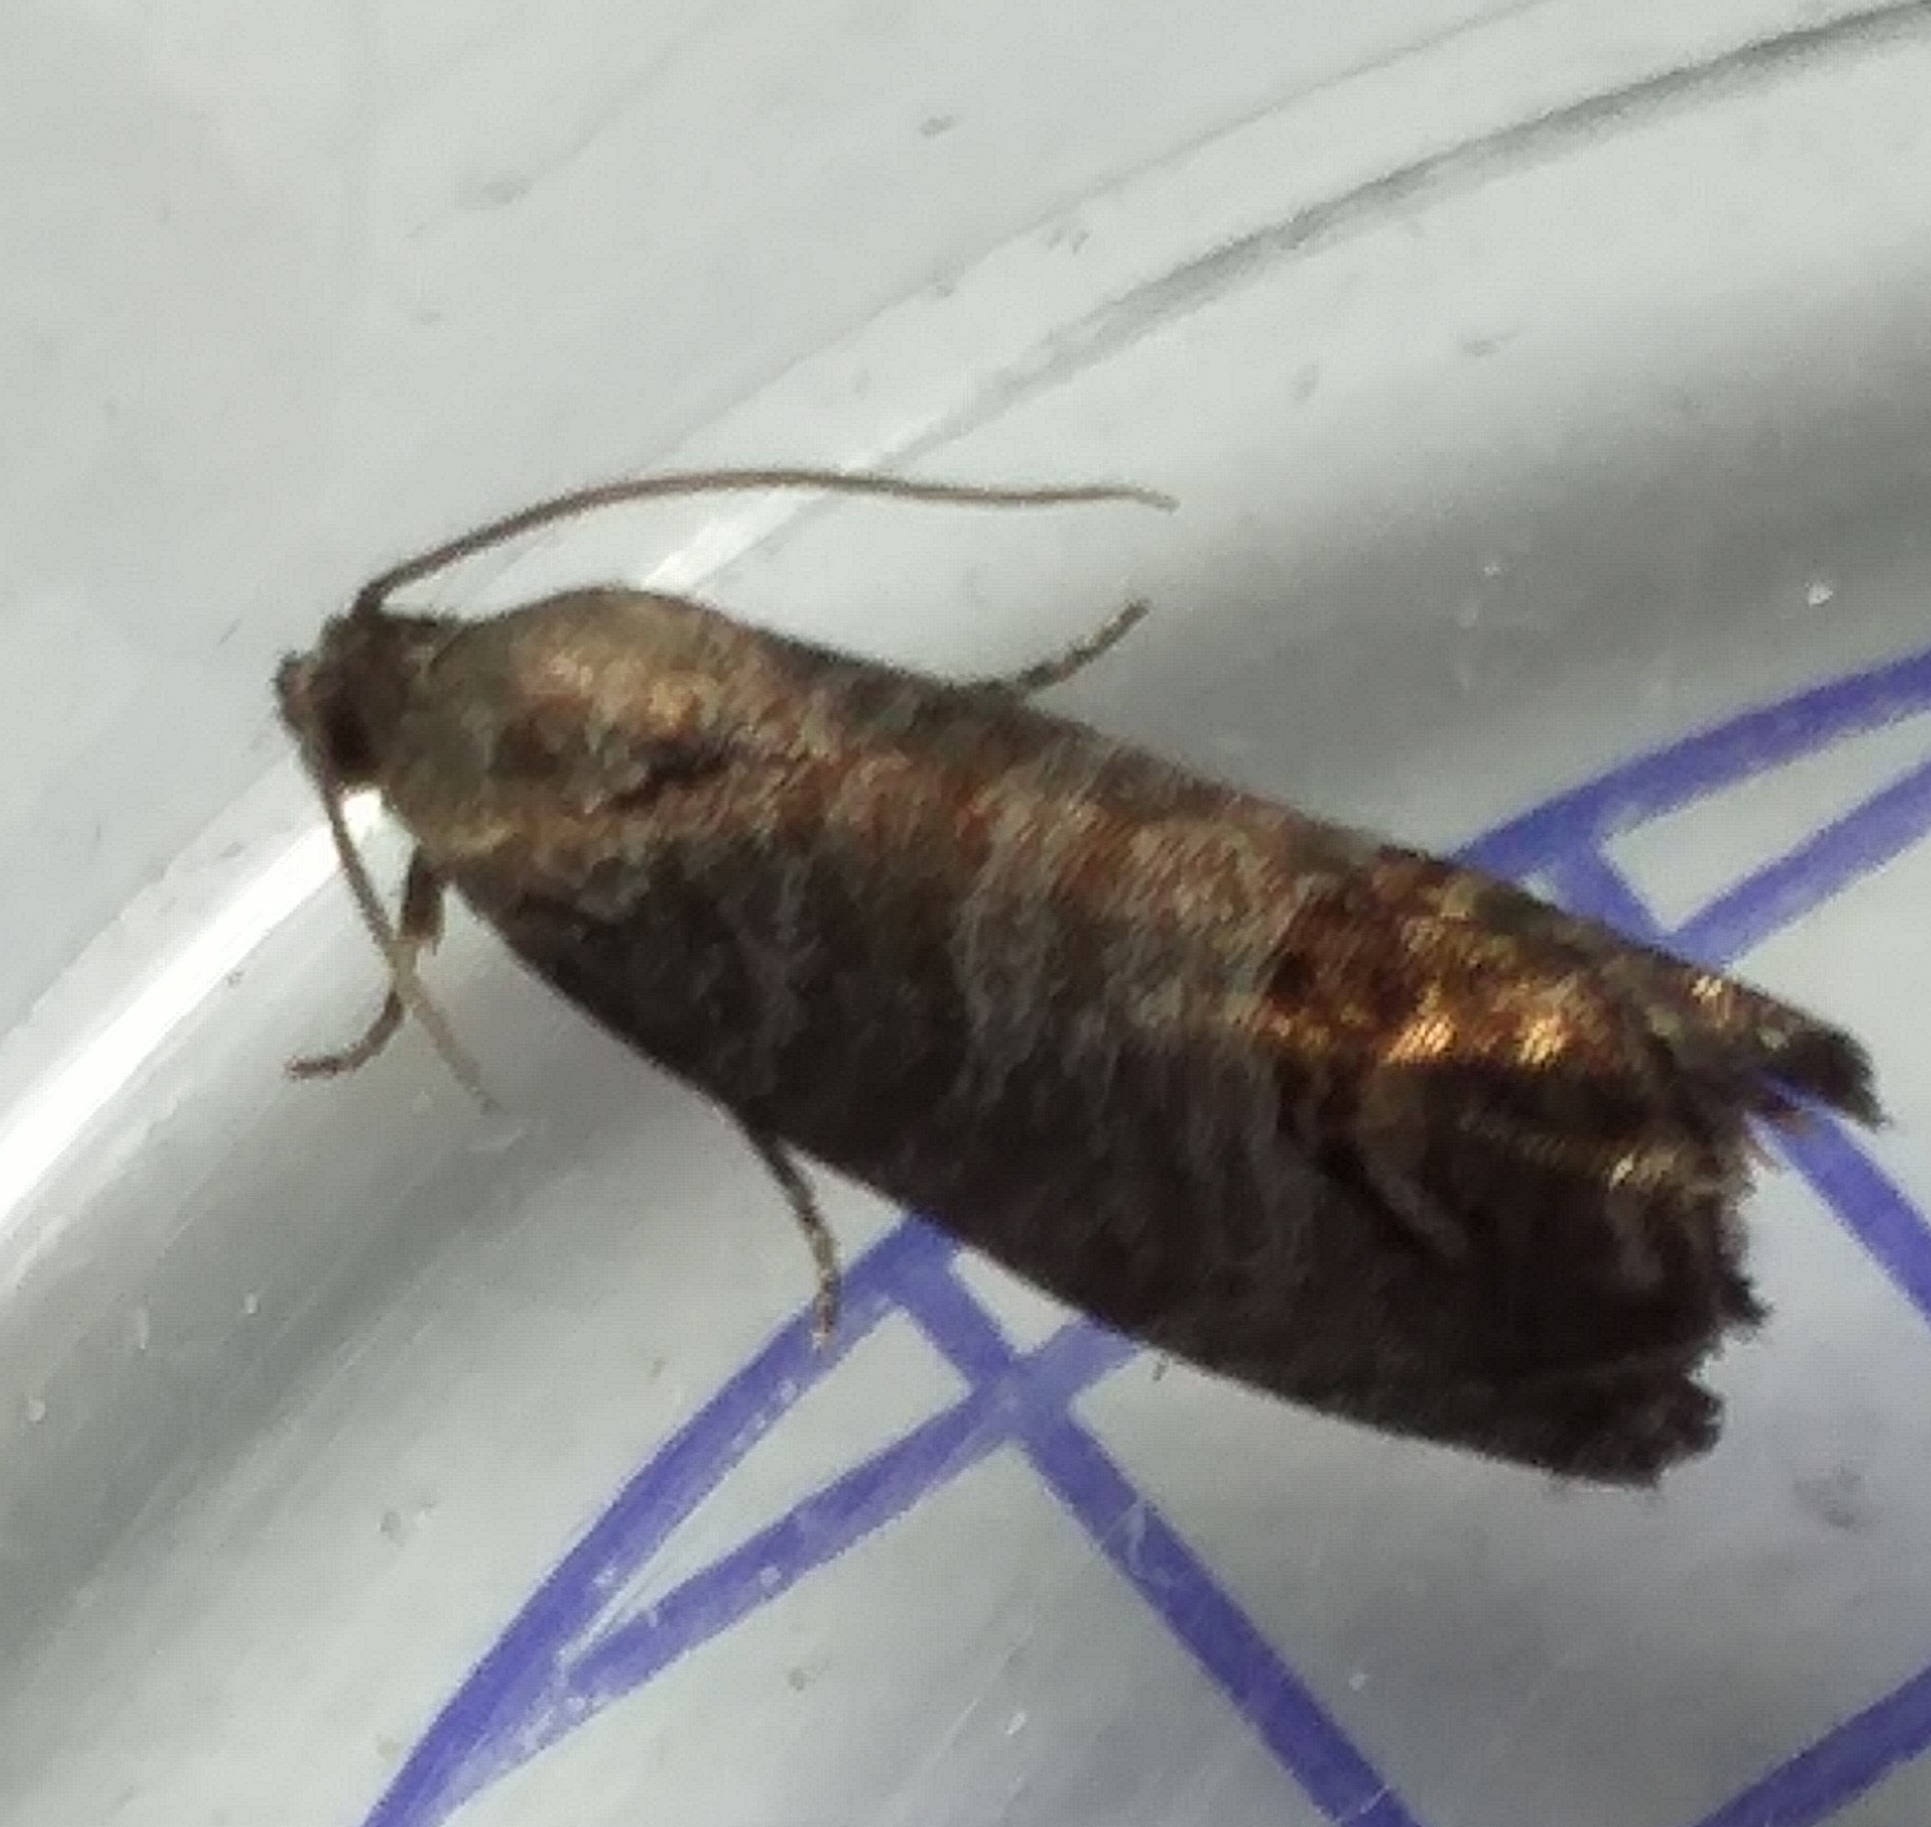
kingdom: Animalia
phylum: Arthropoda
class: Insecta
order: Lepidoptera
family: Tortricidae
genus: Cydia
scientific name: Cydia pomonella
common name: Codling moth
